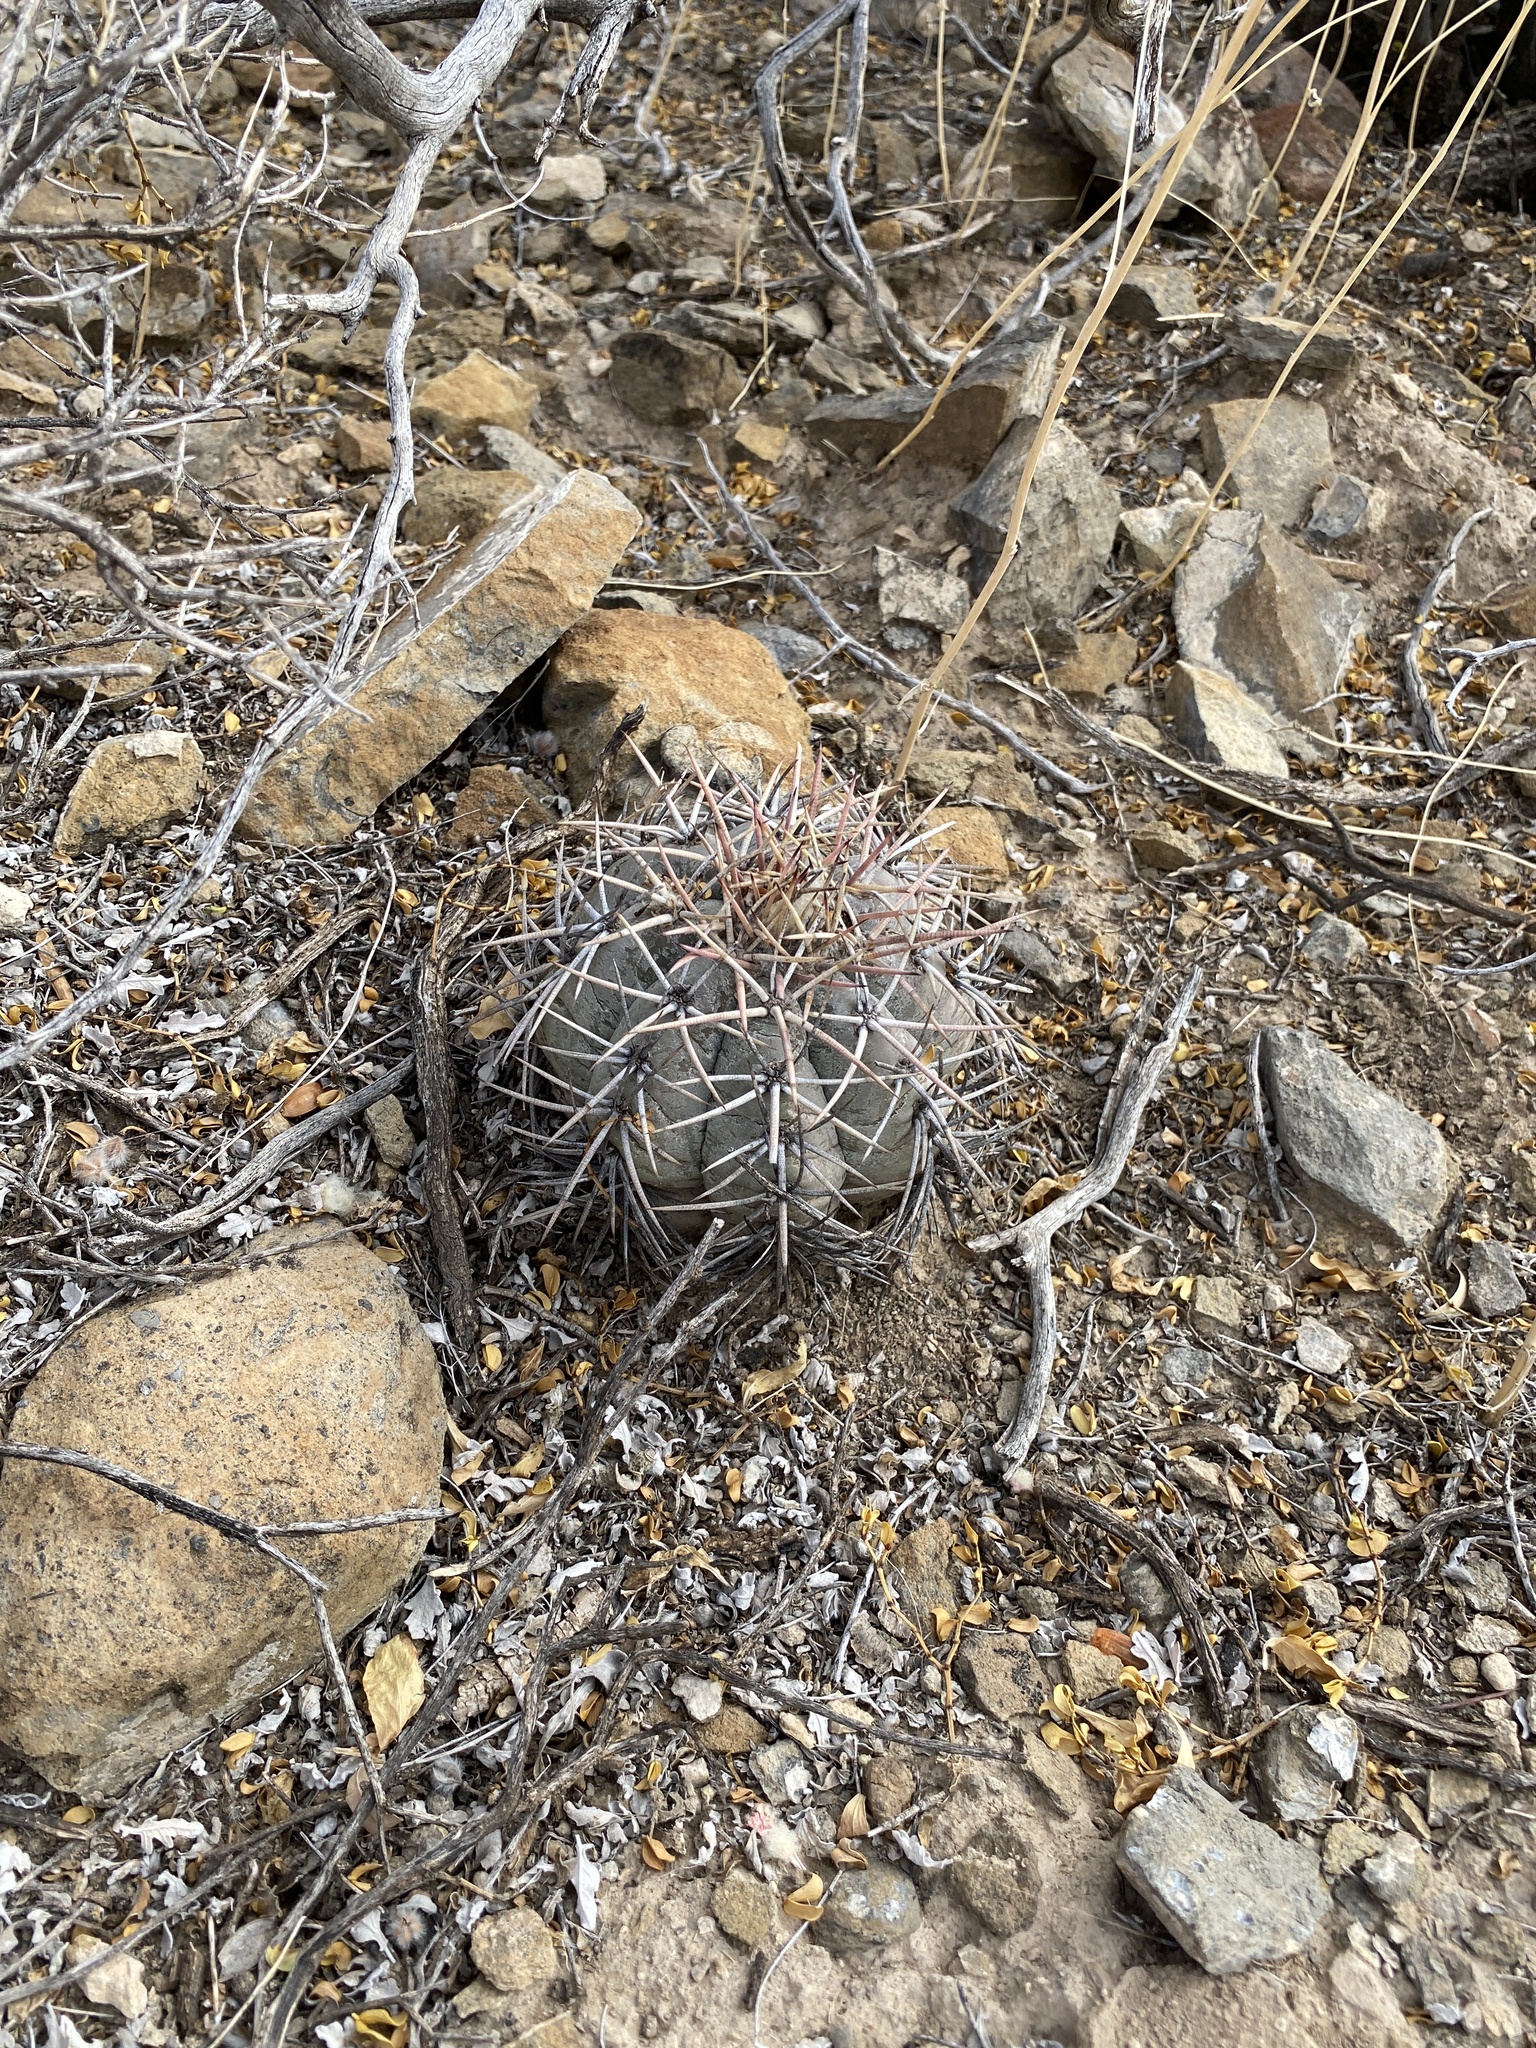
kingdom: Plantae
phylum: Tracheophyta
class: Magnoliopsida
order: Caryophyllales
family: Cactaceae
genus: Echinocactus
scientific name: Echinocactus horizonthalonius
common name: Devilshead
